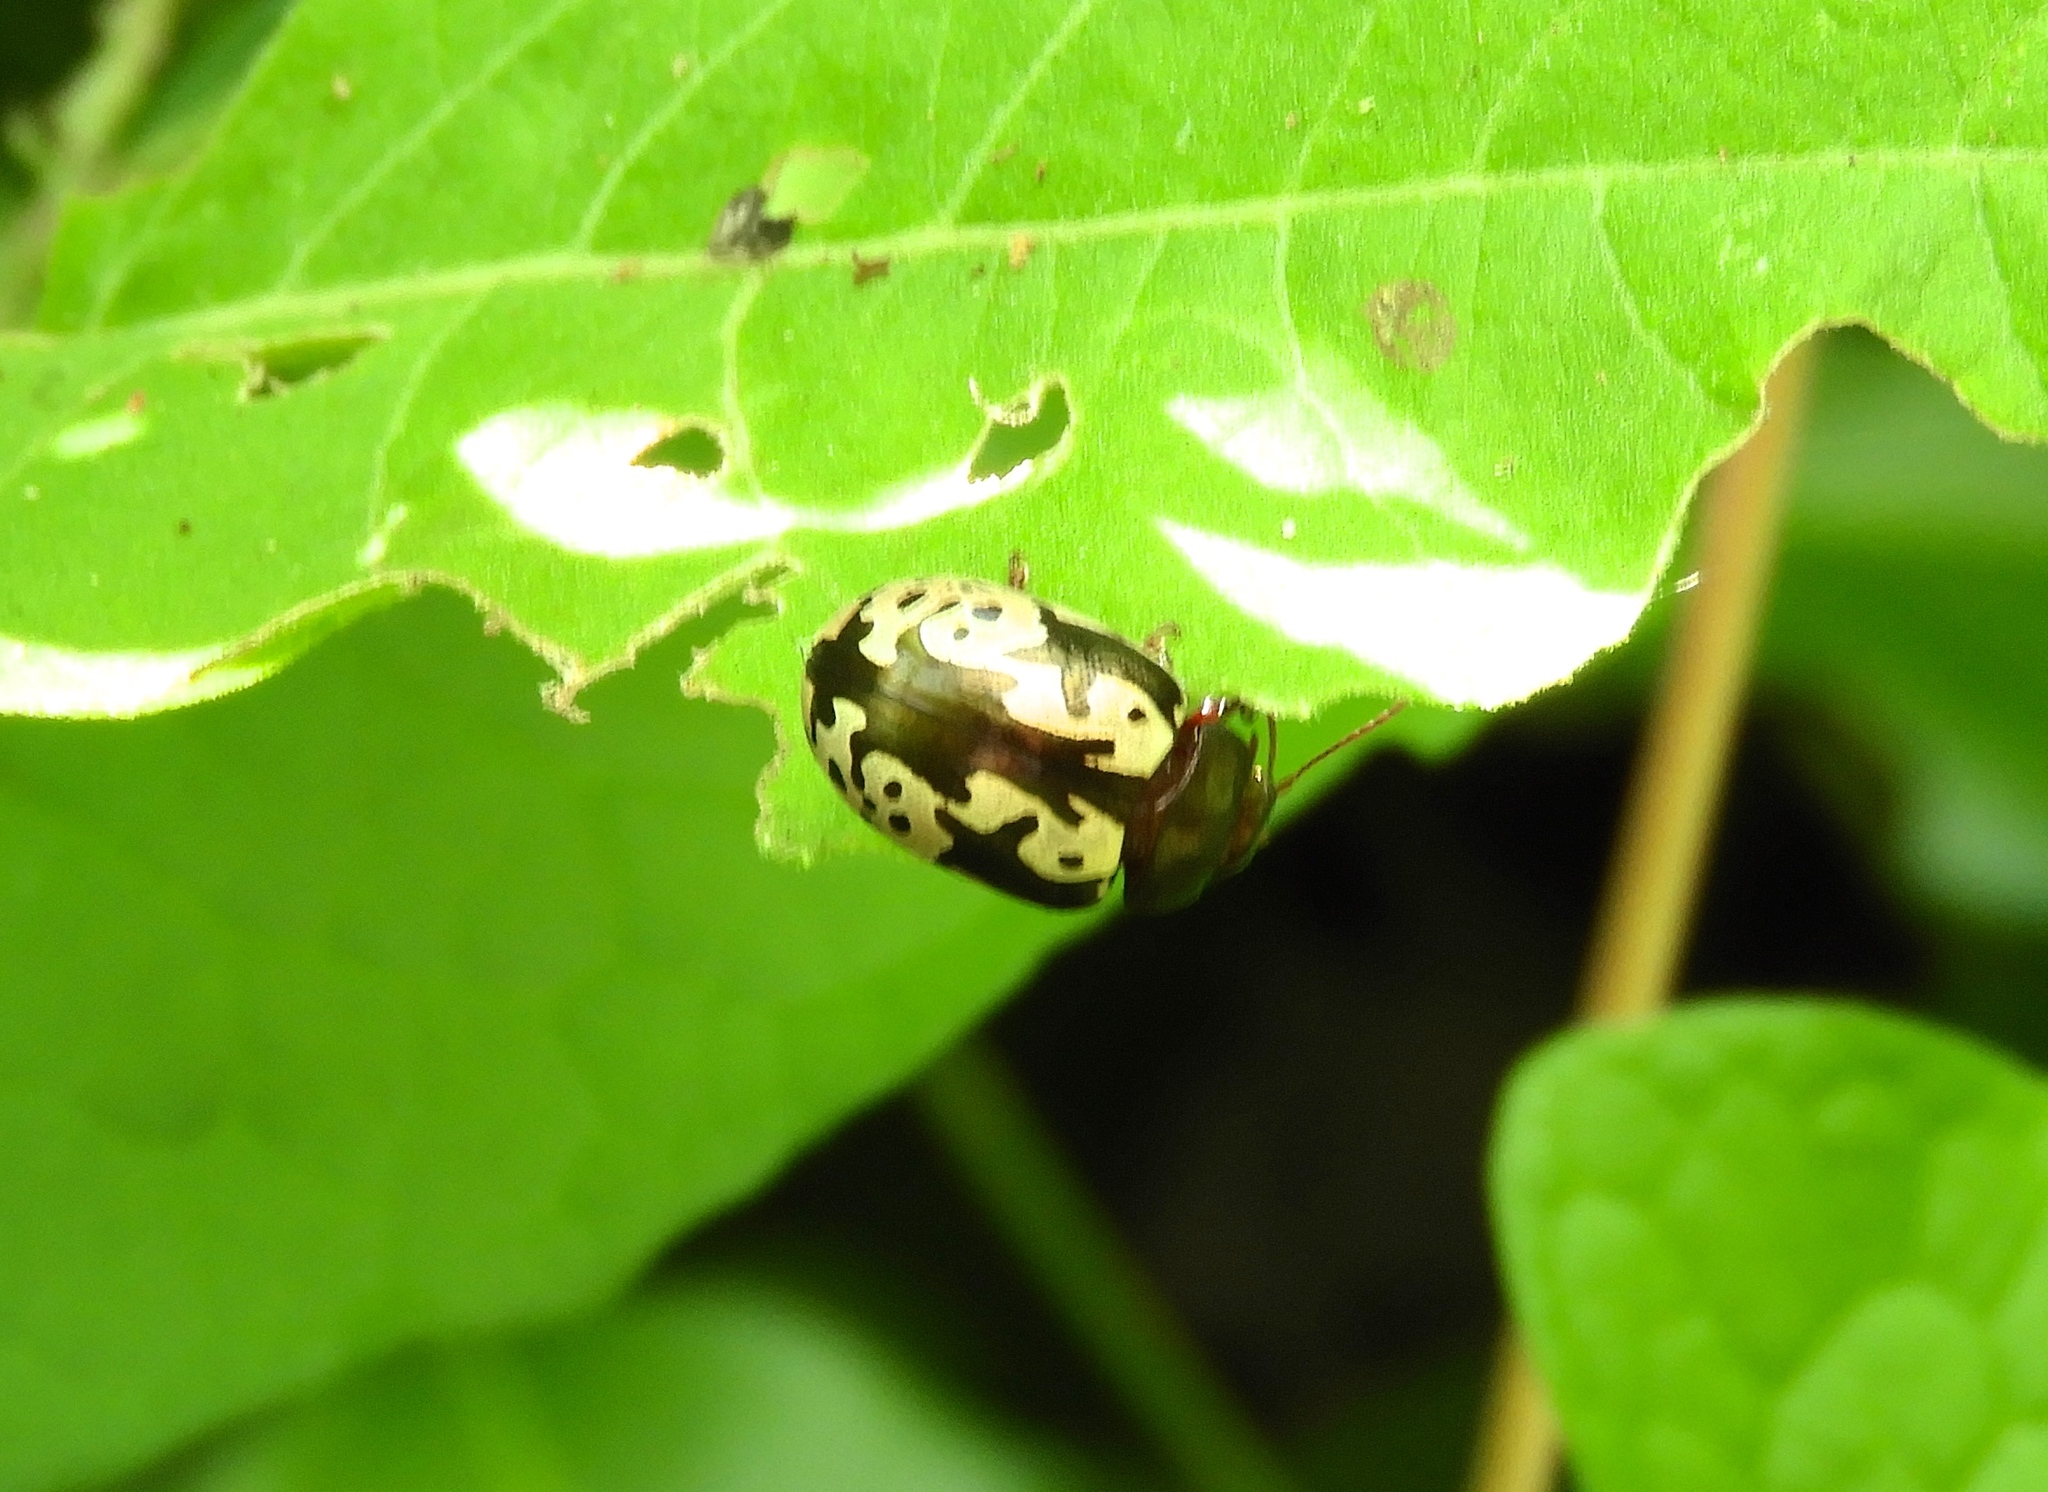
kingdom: Animalia
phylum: Arthropoda
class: Insecta
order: Coleoptera
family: Chrysomelidae
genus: Calligrapha
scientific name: Calligrapha intermedia
